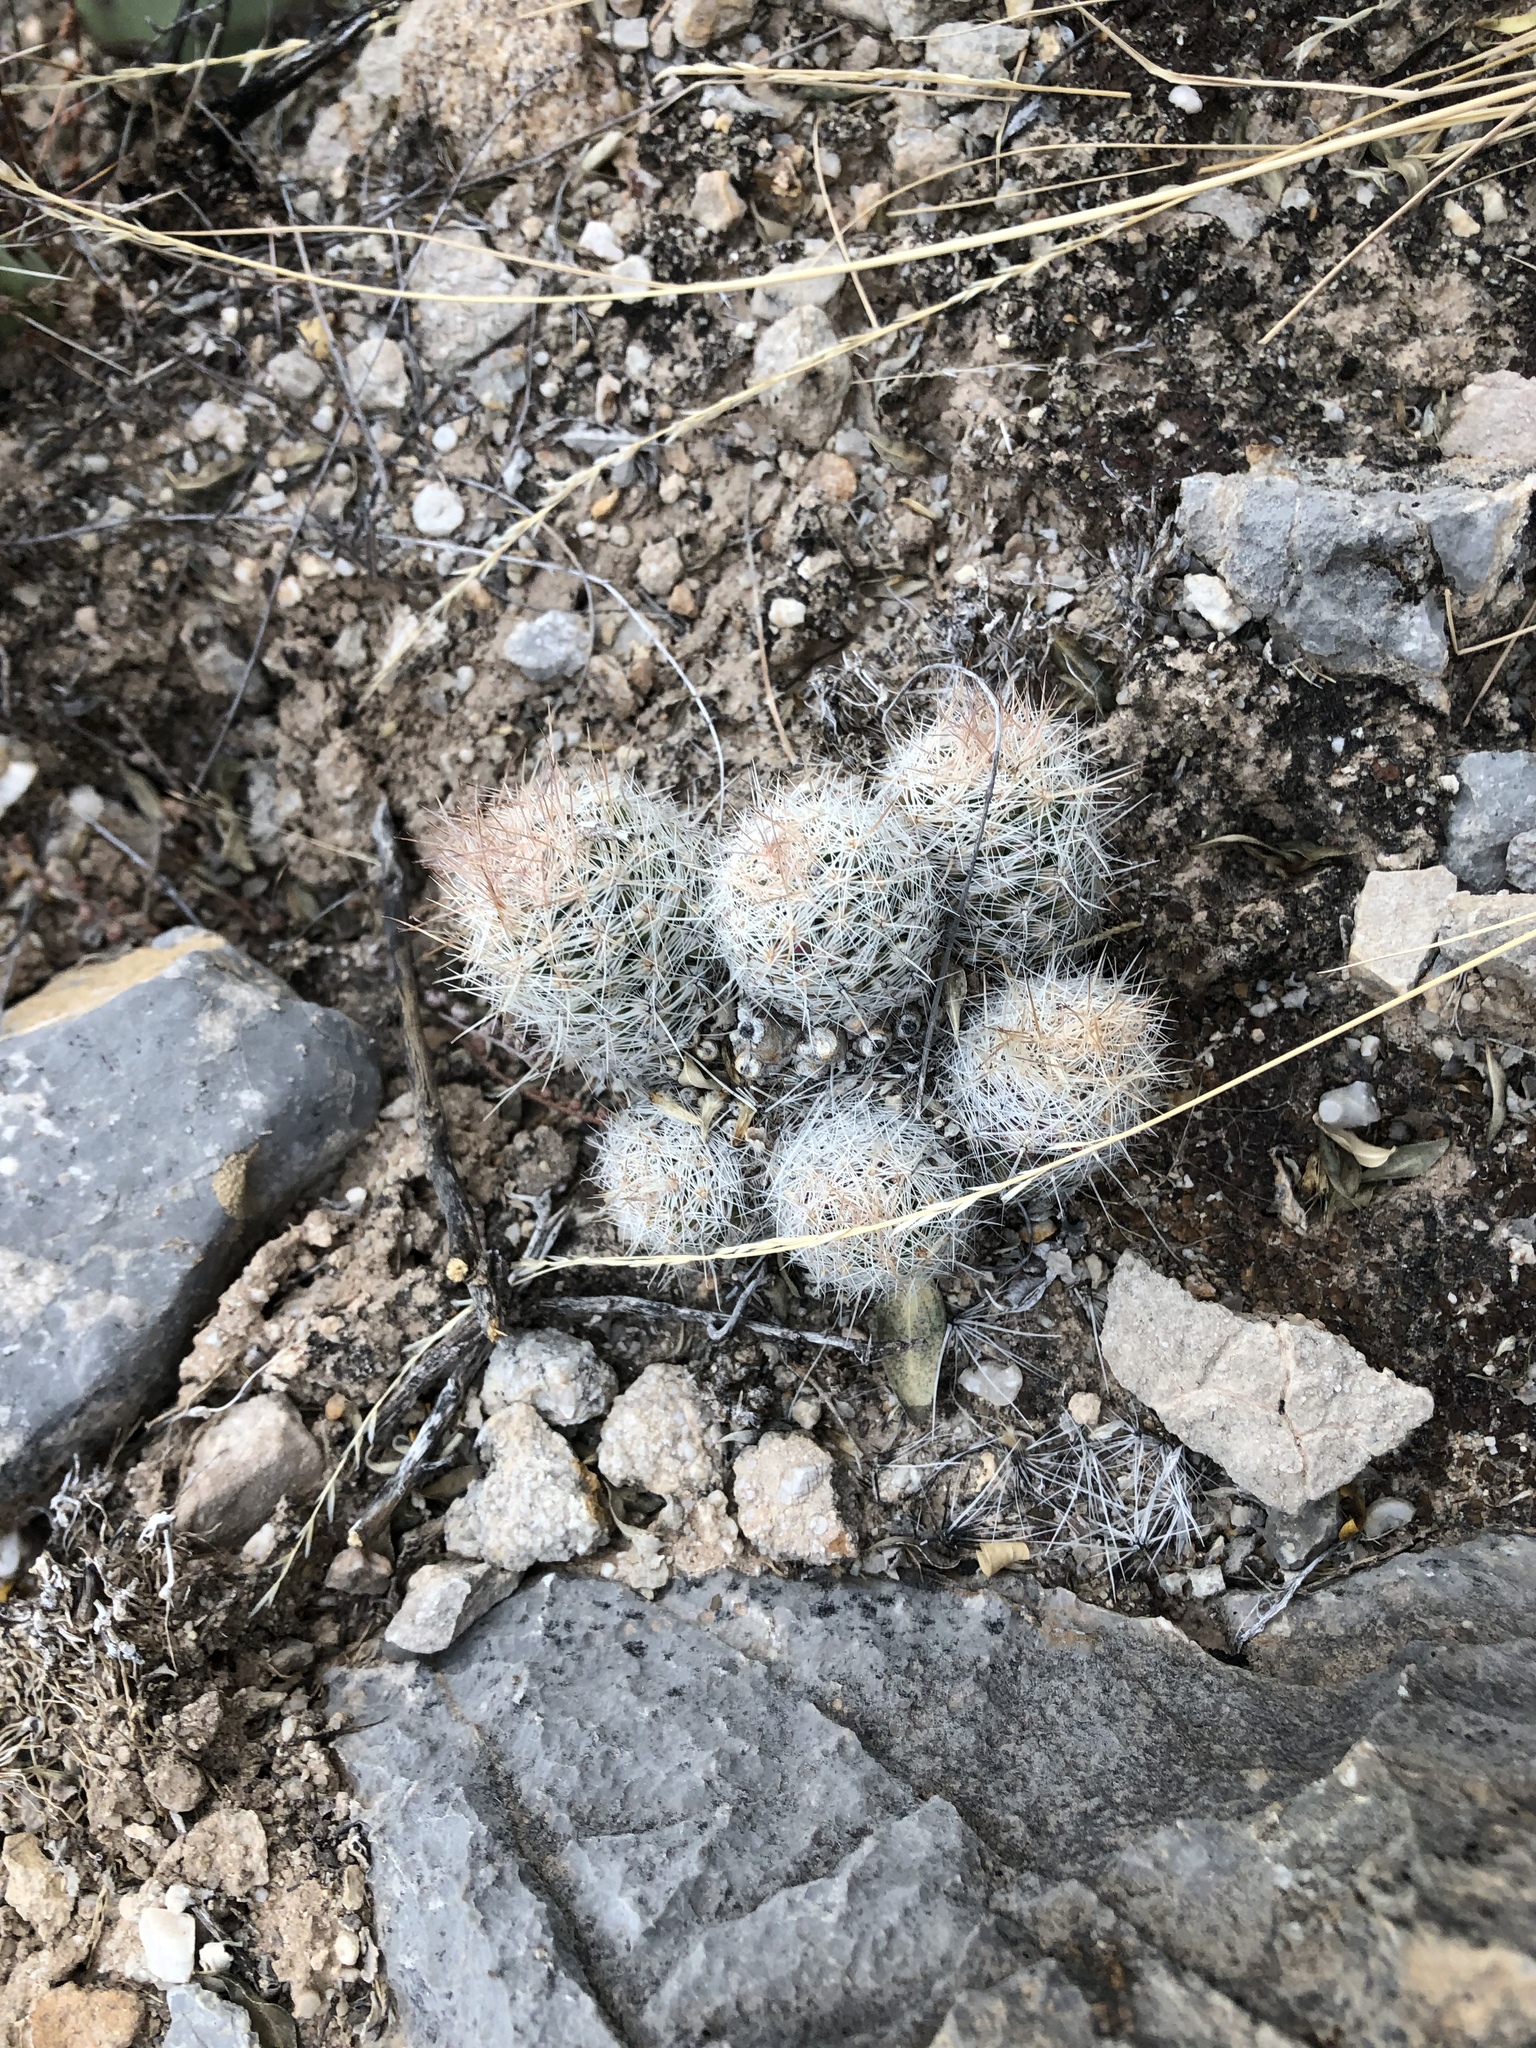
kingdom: Plantae
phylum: Tracheophyta
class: Magnoliopsida
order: Caryophyllales
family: Cactaceae
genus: Pelecyphora
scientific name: Pelecyphora tuberculosa
